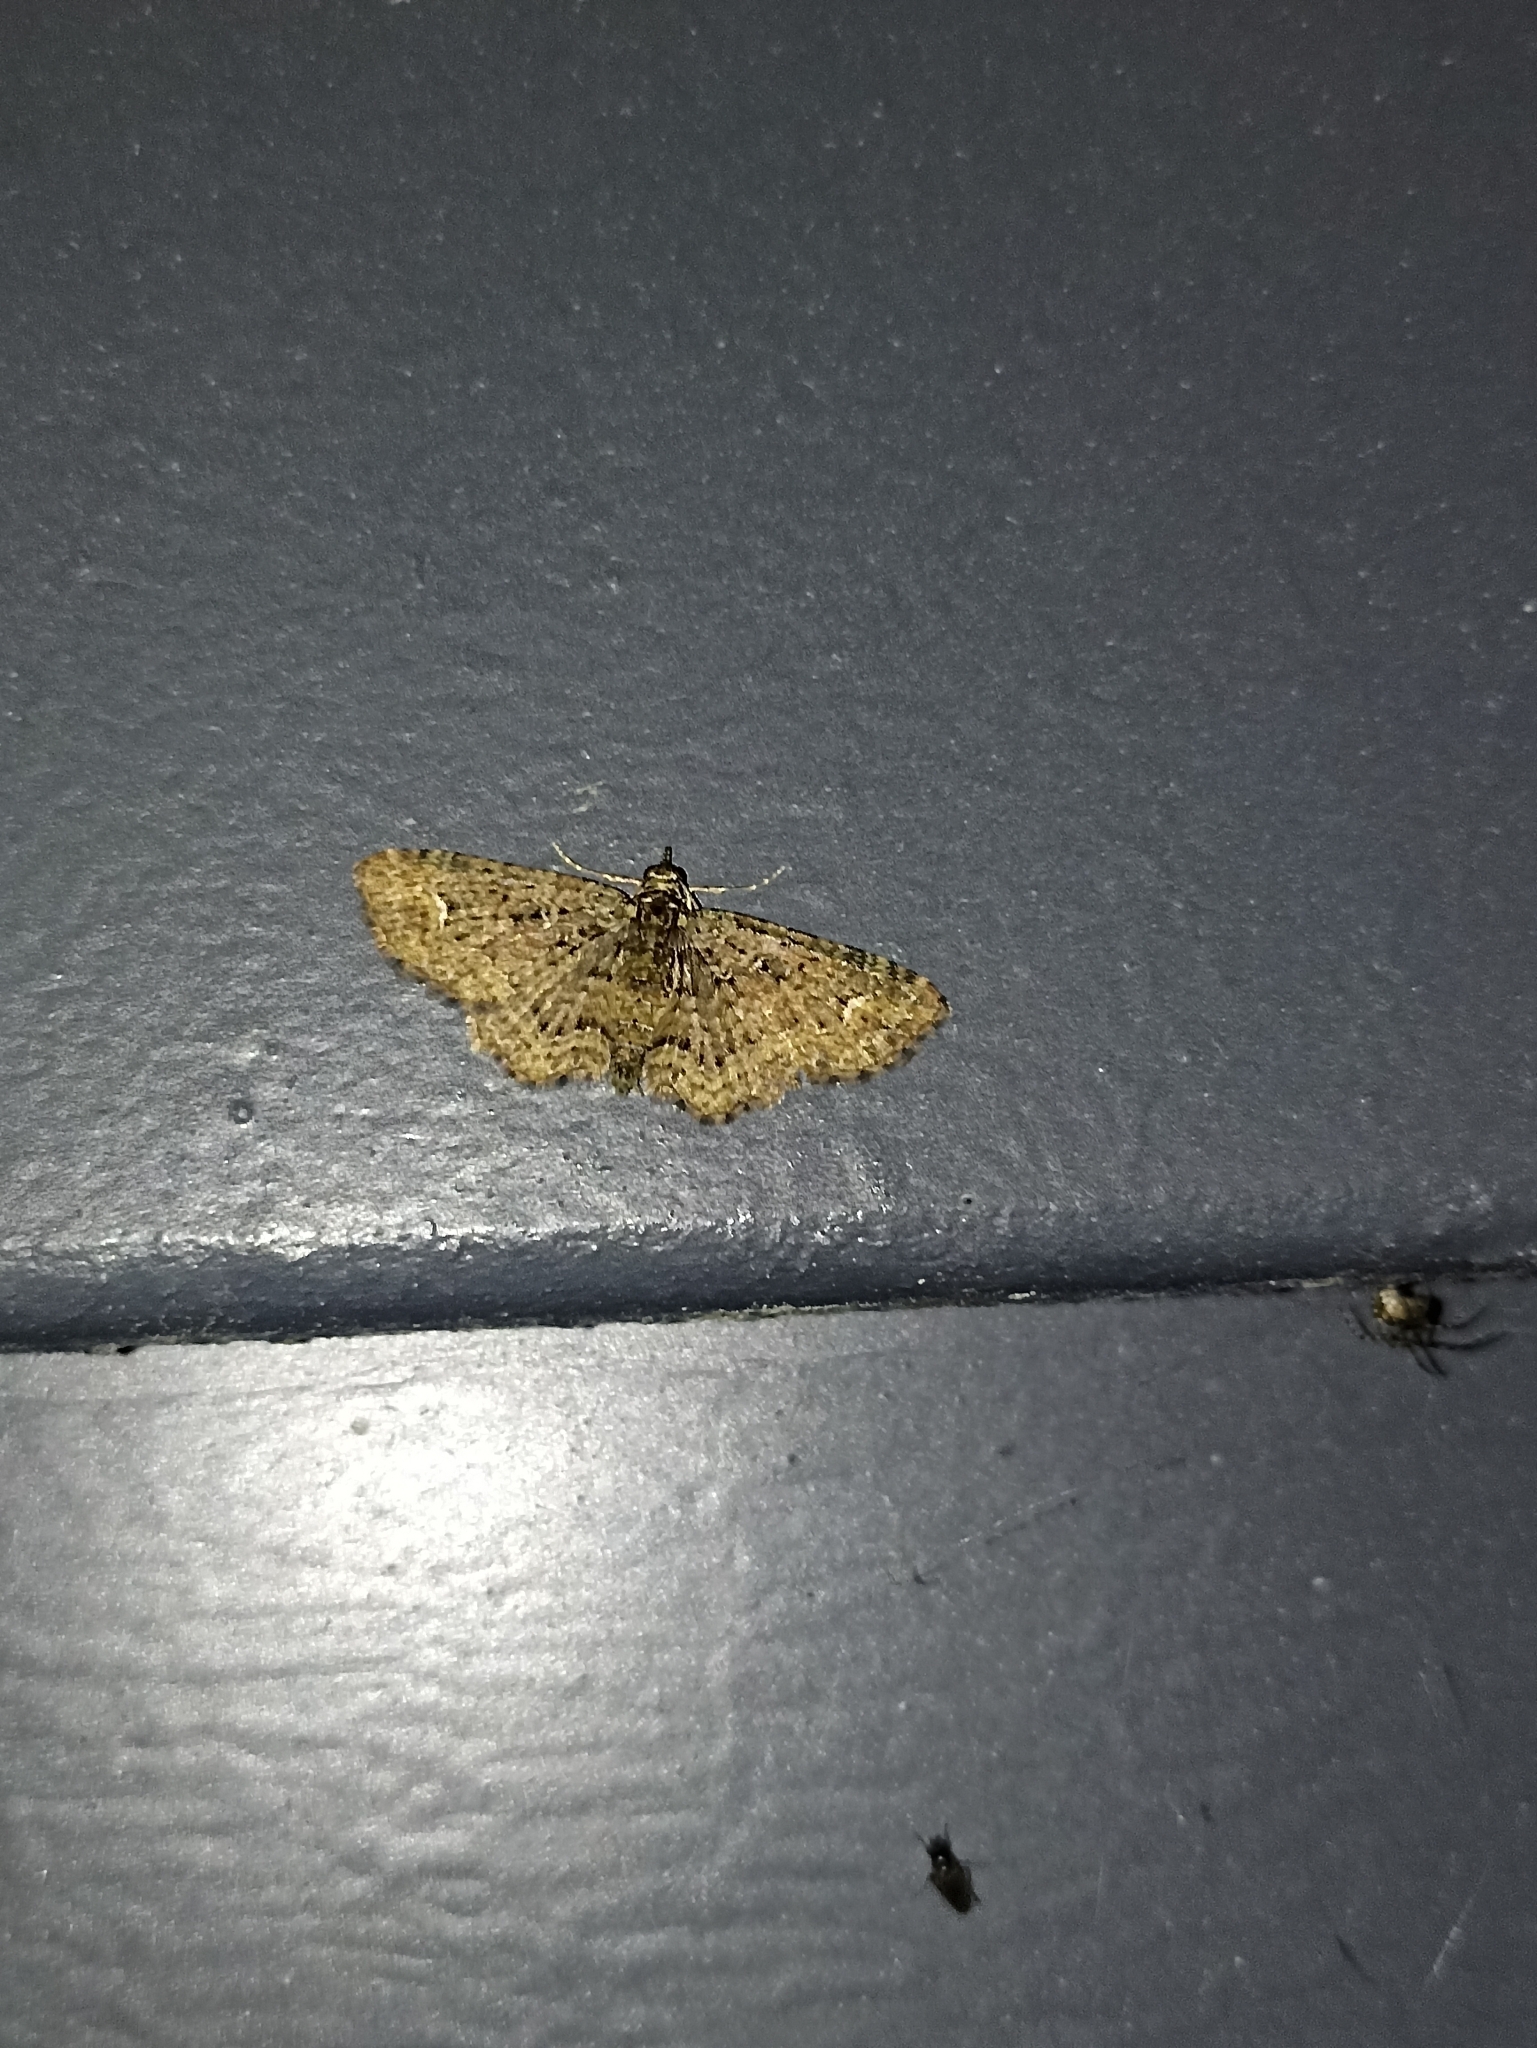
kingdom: Animalia
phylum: Arthropoda
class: Insecta
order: Lepidoptera
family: Geometridae
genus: Pasiphilodes
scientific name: Pasiphilodes testulata
